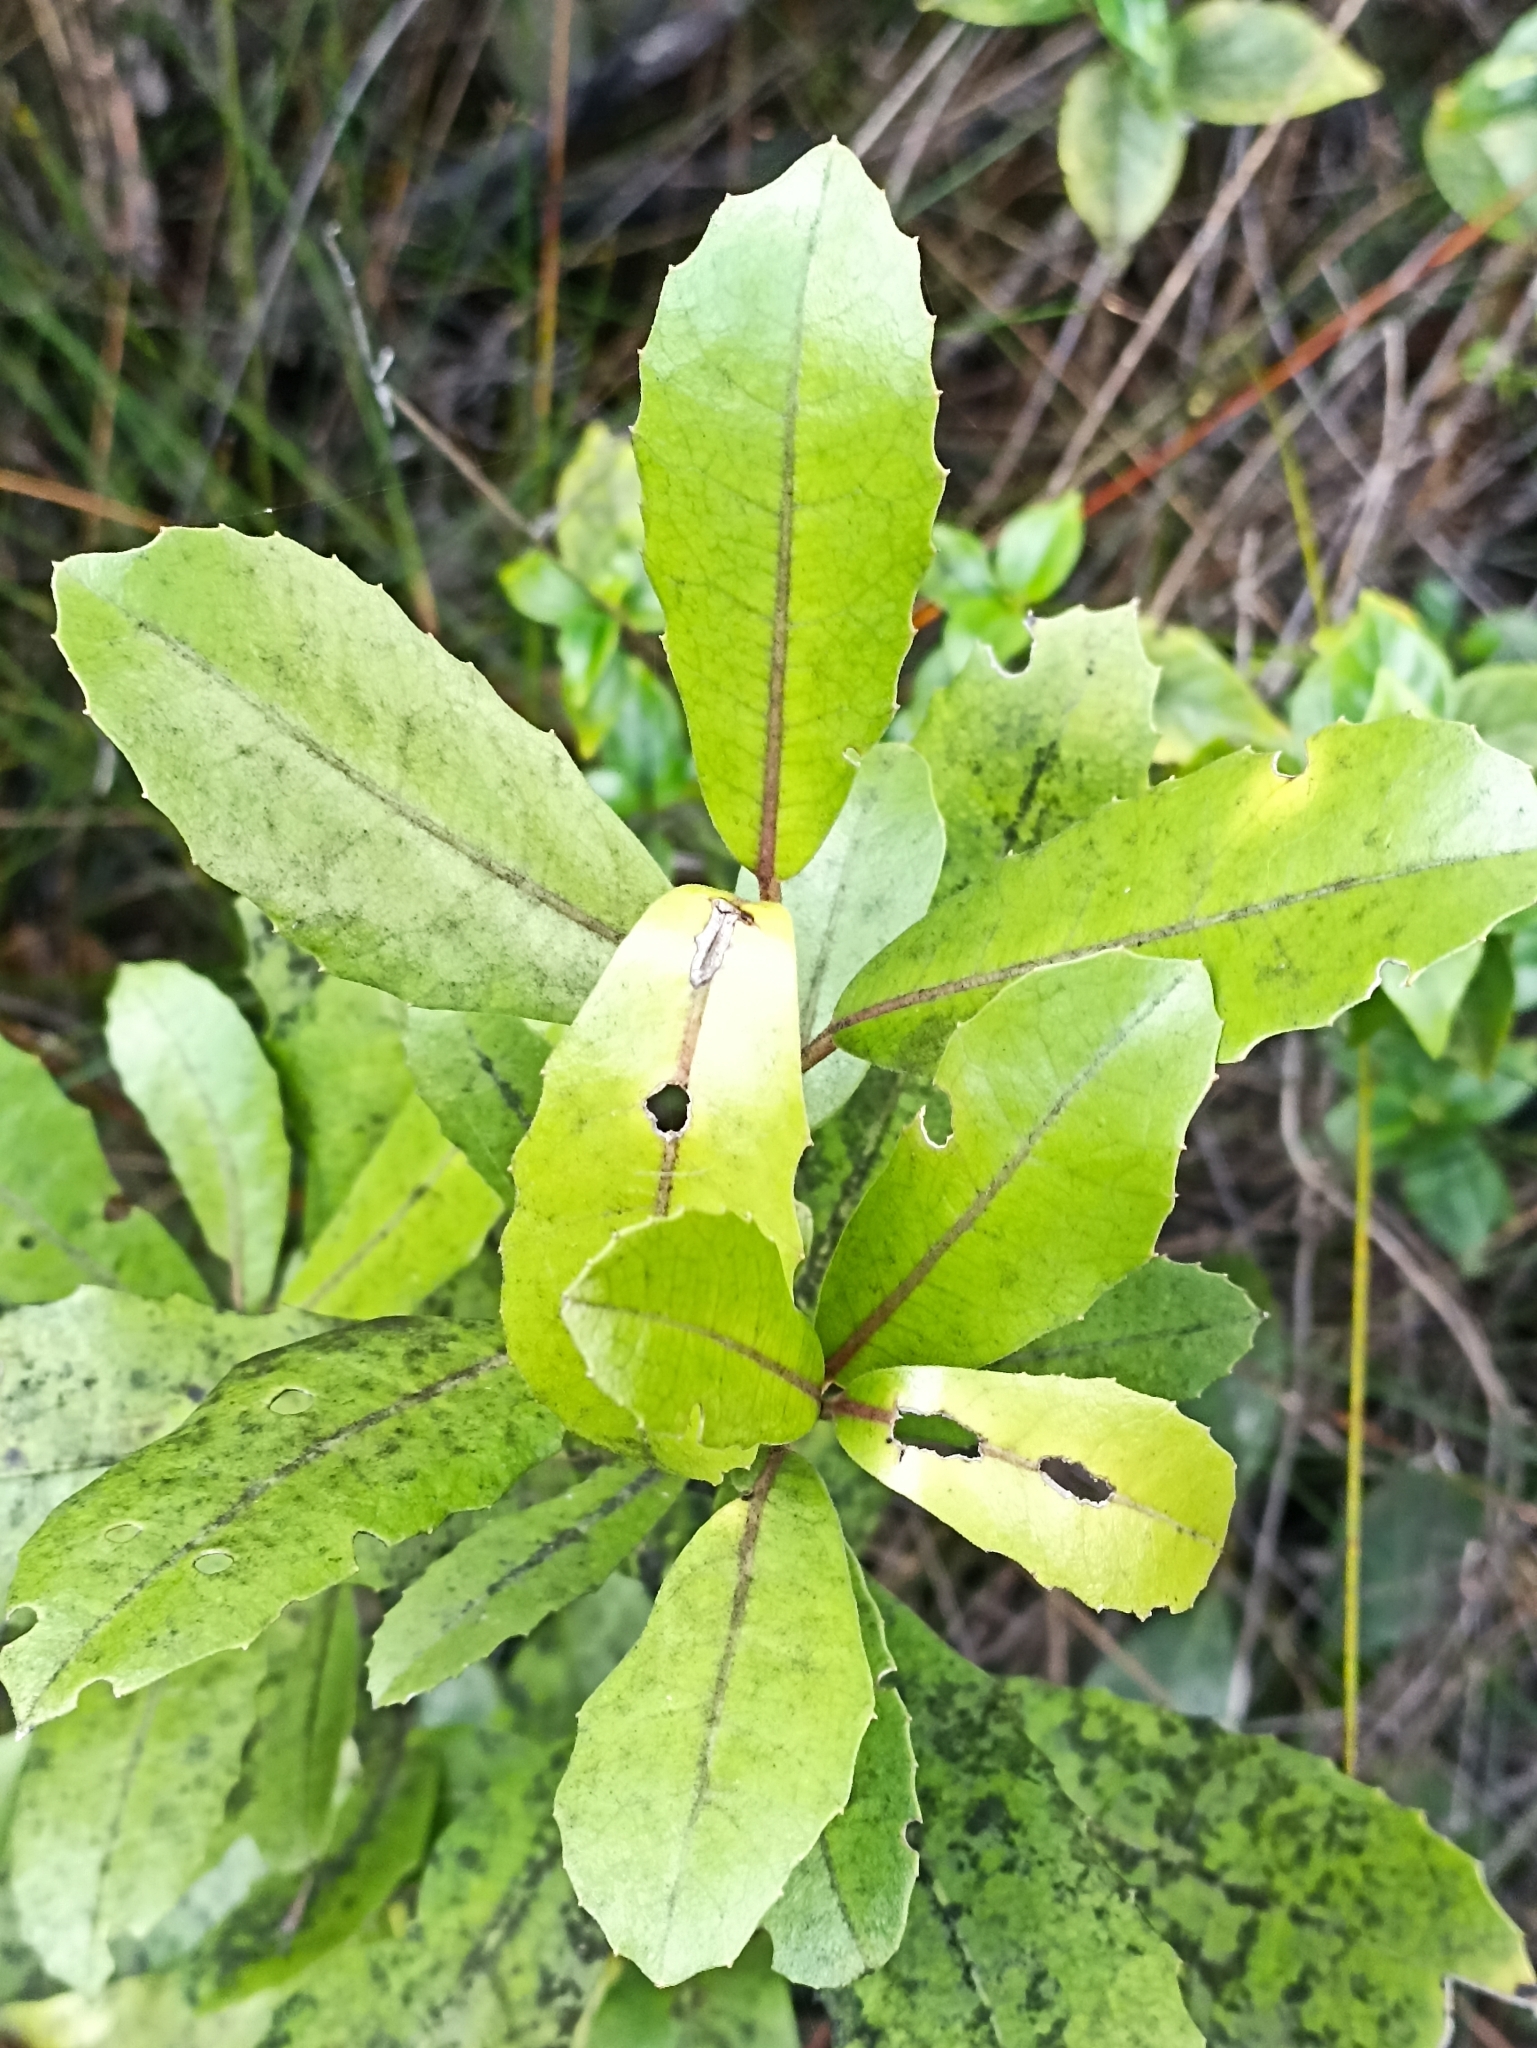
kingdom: Plantae
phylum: Tracheophyta
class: Magnoliopsida
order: Laurales
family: Monimiaceae
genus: Hedycarya
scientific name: Hedycarya arborea
